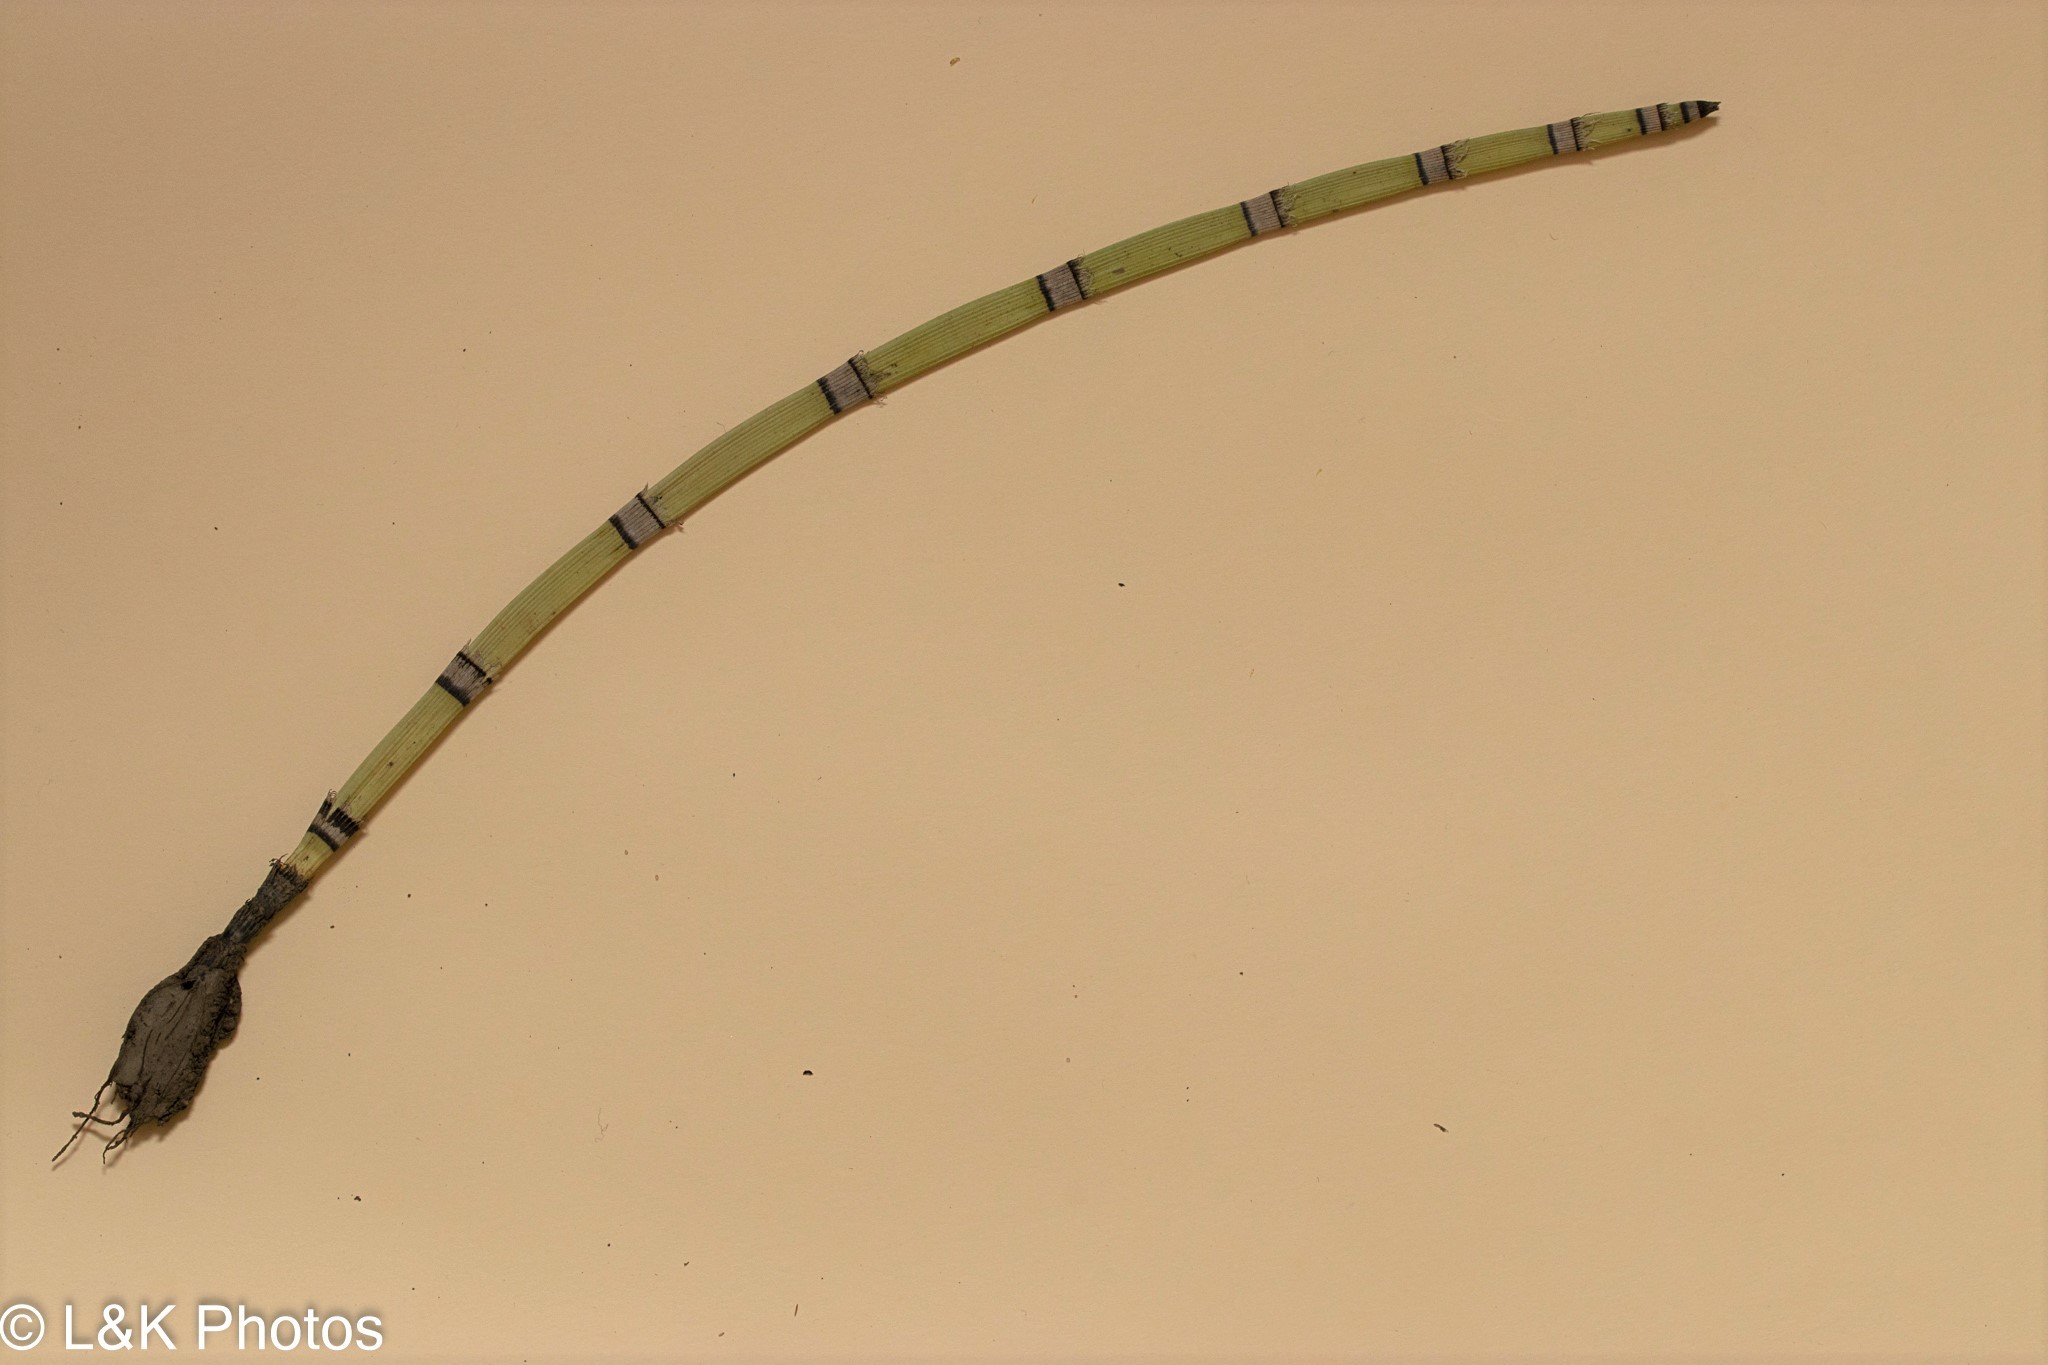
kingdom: Plantae
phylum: Tracheophyta
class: Polypodiopsida
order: Equisetales
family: Equisetaceae
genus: Equisetum
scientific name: Equisetum praealtum
